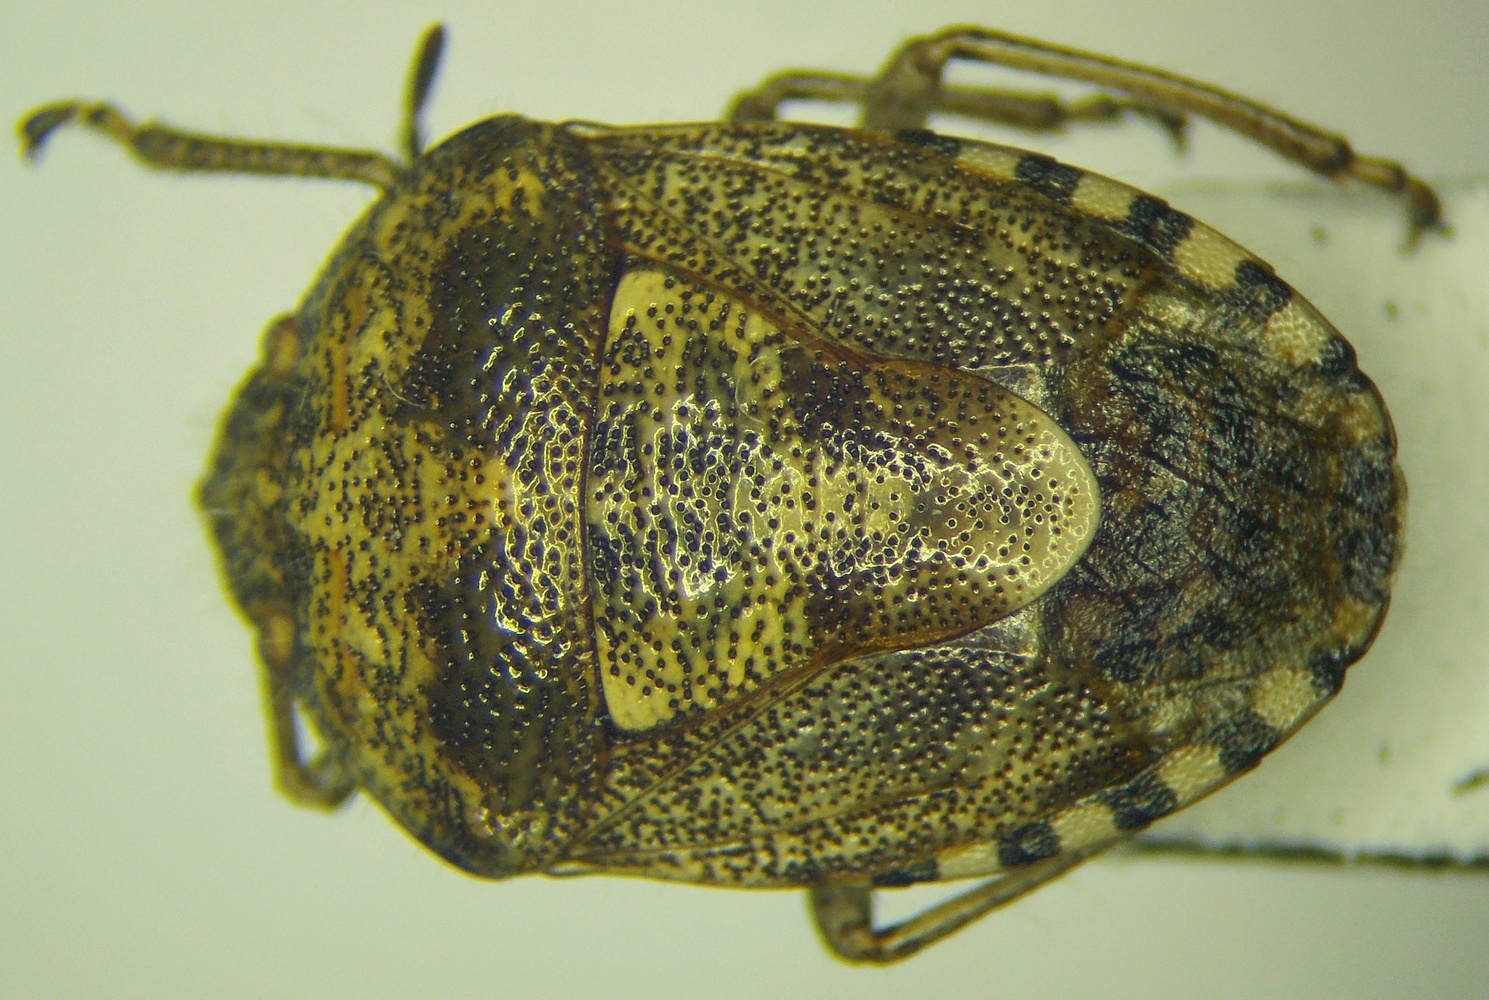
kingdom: Animalia
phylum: Arthropoda
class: Insecta
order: Hemiptera
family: Pentatomidae
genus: Staria
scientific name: Staria lunata
